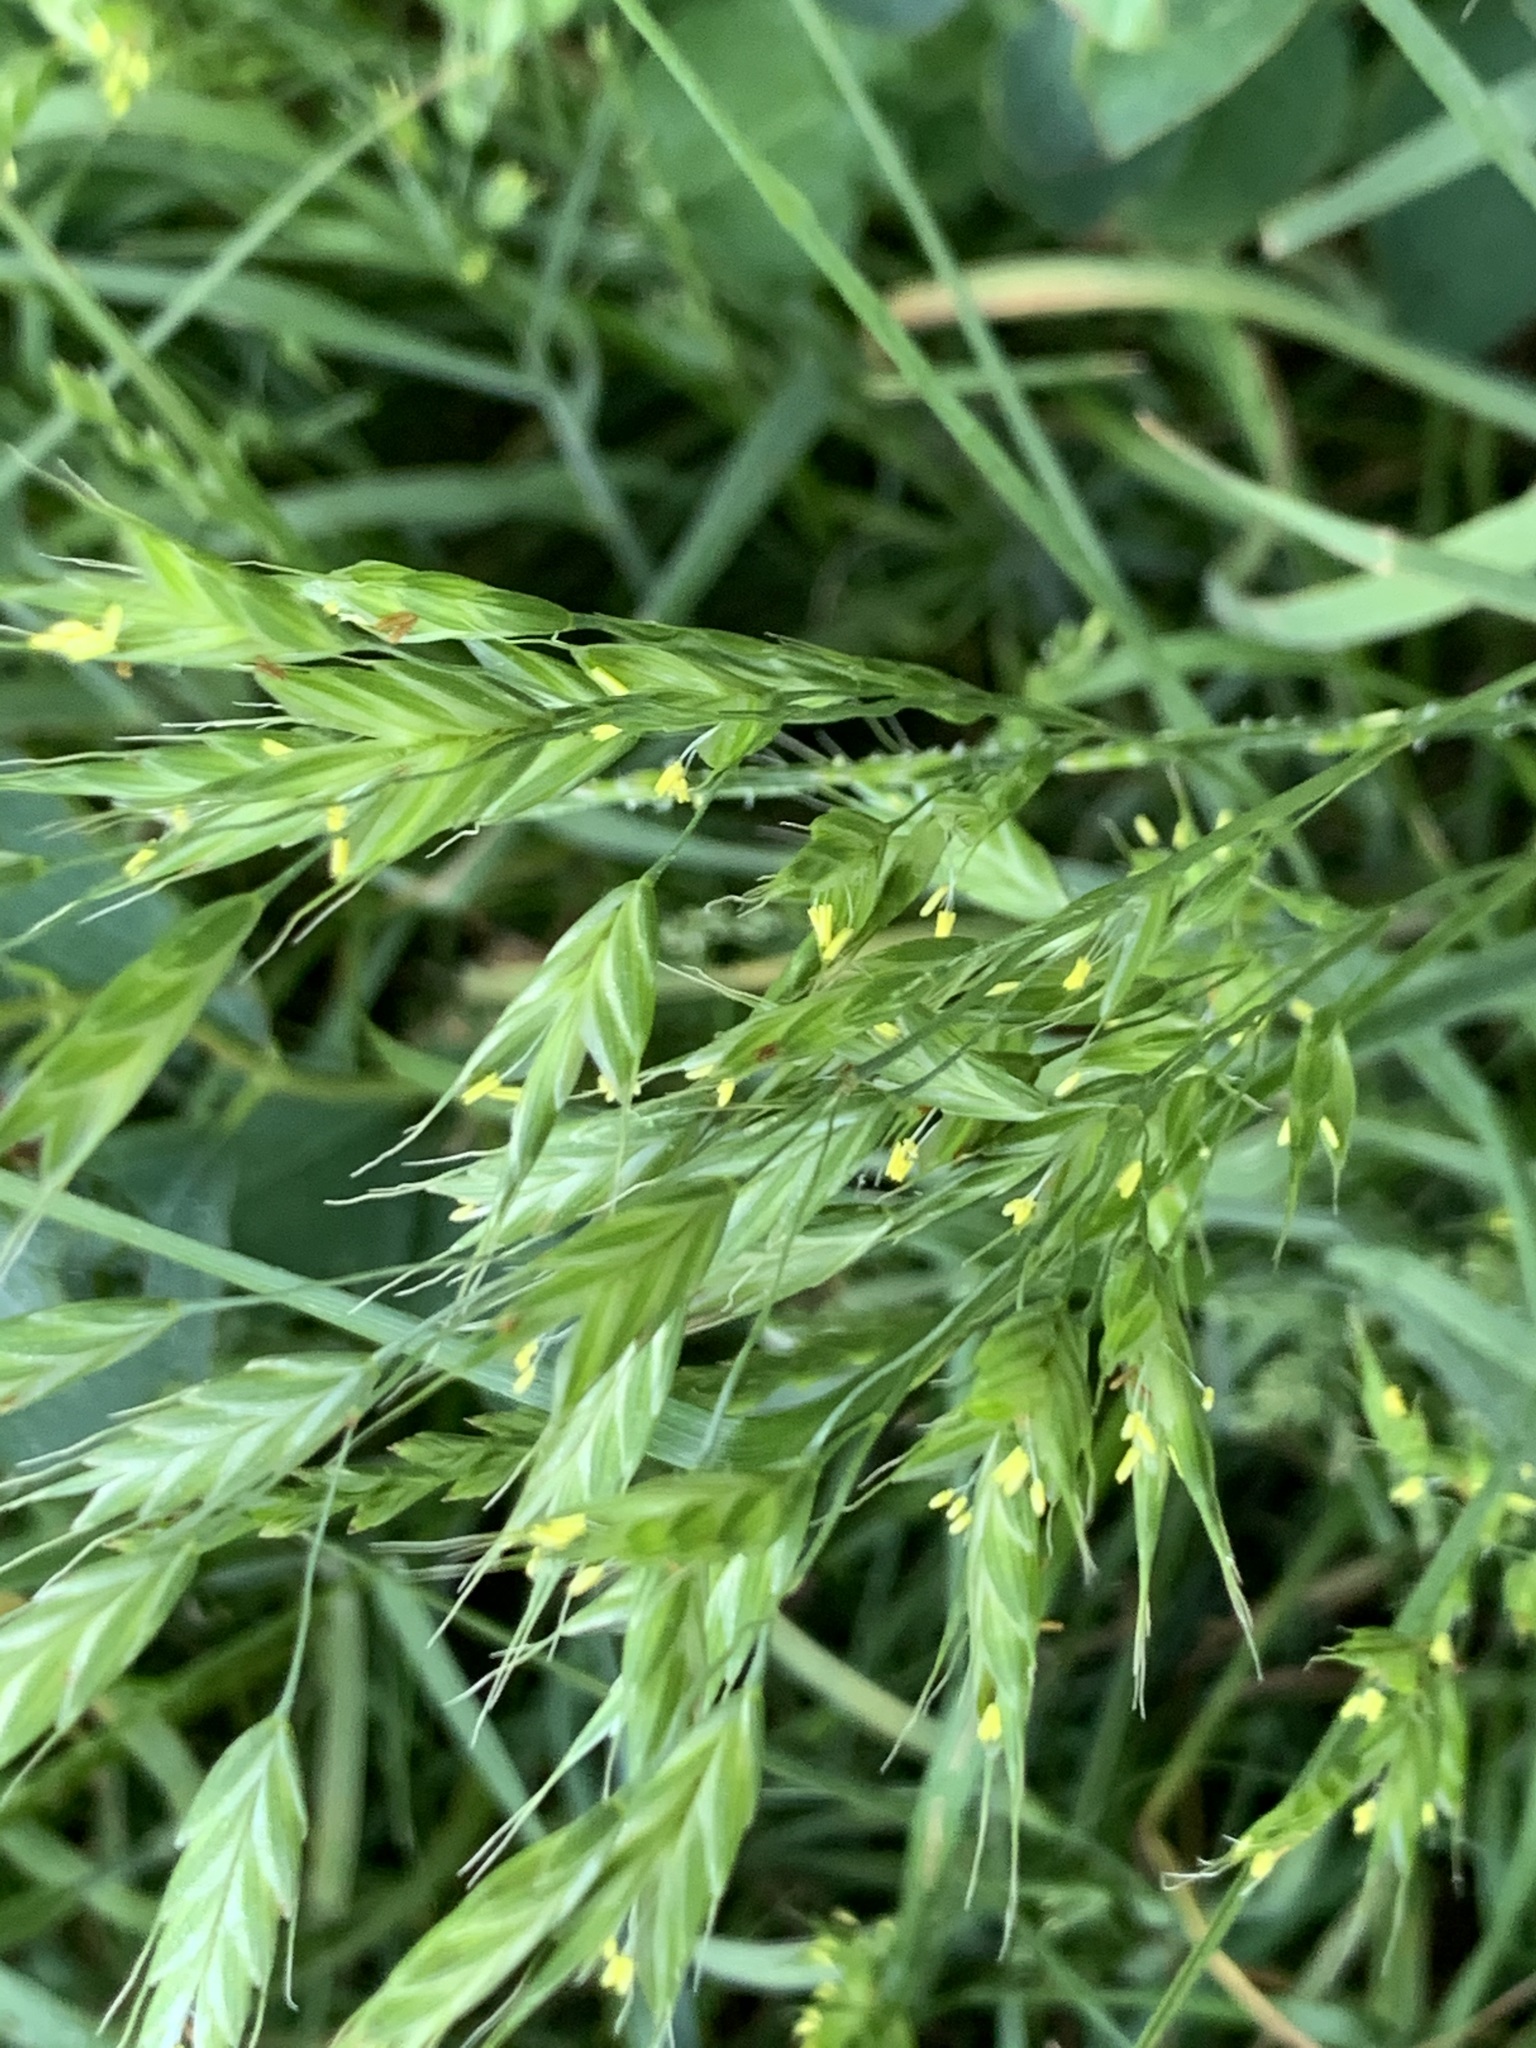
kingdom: Plantae
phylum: Tracheophyta
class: Liliopsida
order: Poales
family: Poaceae
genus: Bromus
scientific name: Bromus hordeaceus
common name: Soft brome
